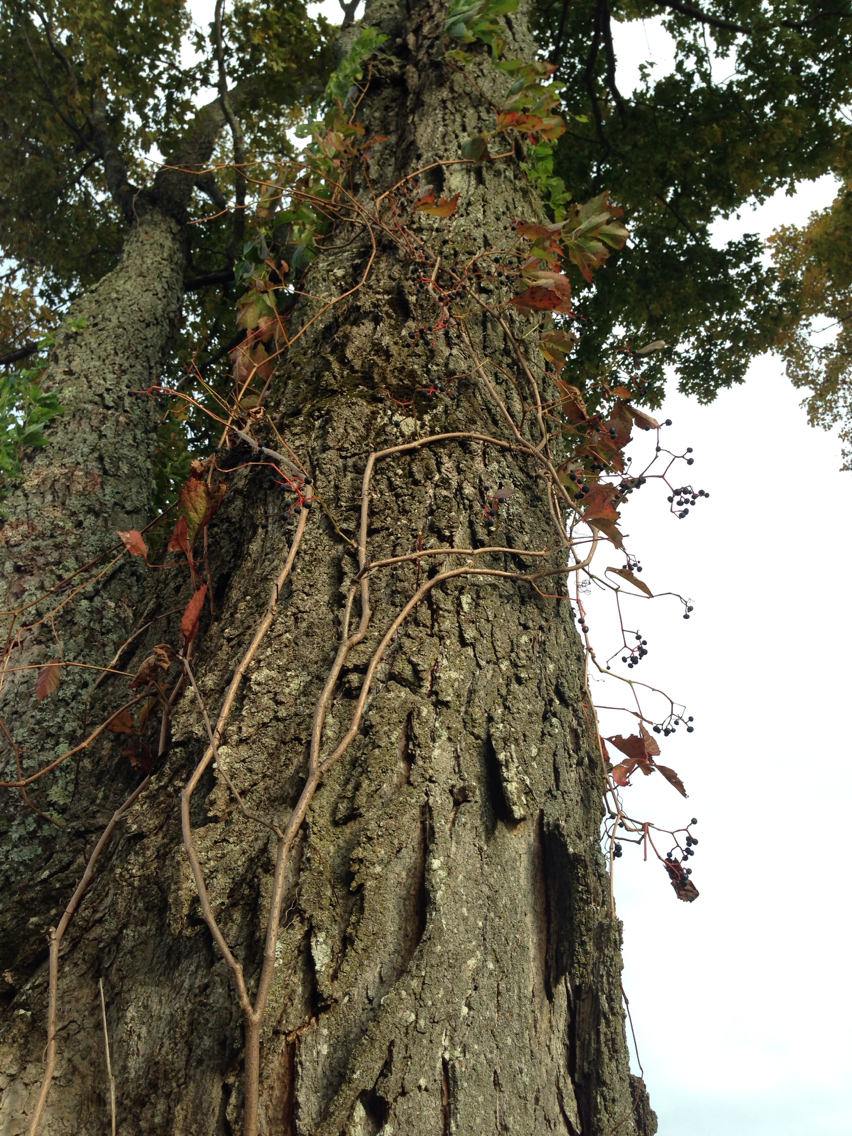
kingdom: Plantae
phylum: Tracheophyta
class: Magnoliopsida
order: Vitales
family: Vitaceae
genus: Parthenocissus
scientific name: Parthenocissus quinquefolia
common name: Virginia-creeper
